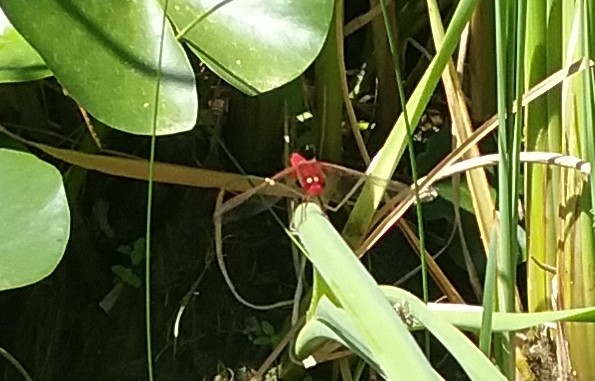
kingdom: Animalia
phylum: Arthropoda
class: Insecta
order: Odonata
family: Libellulidae
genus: Crocothemis
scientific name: Crocothemis erythraea
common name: Scarlet dragonfly
